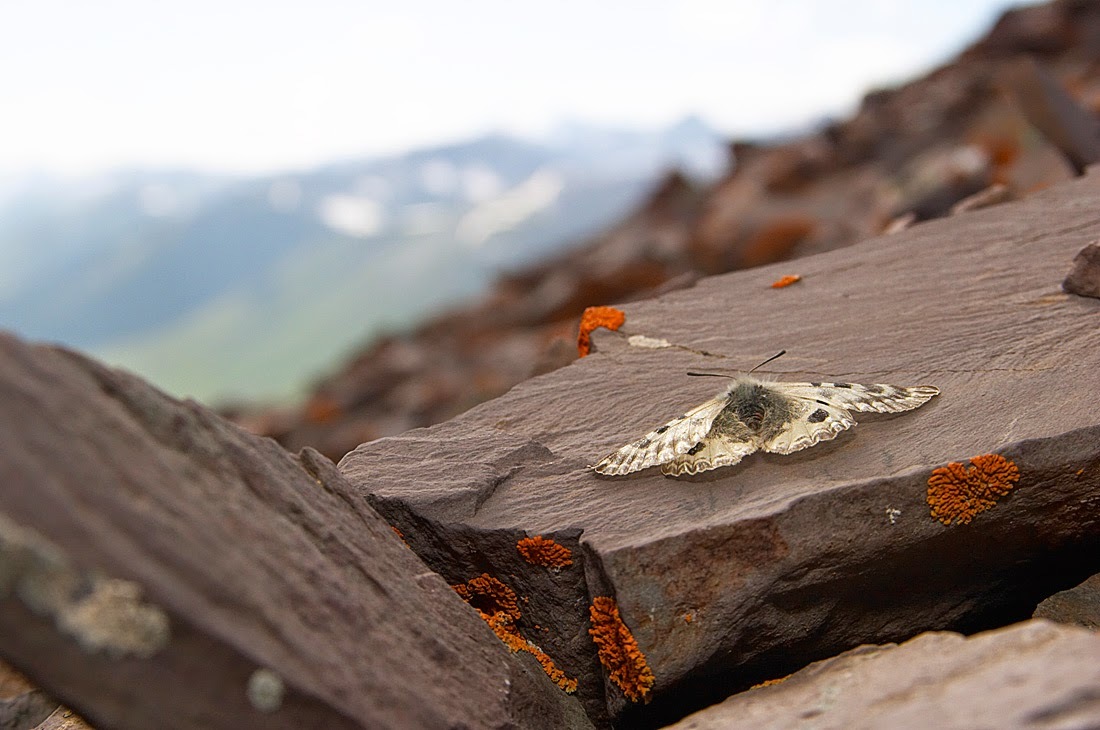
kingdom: Animalia
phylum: Arthropoda
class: Insecta
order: Lepidoptera
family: Papilionidae
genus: Parnassius
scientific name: Parnassius patricius
